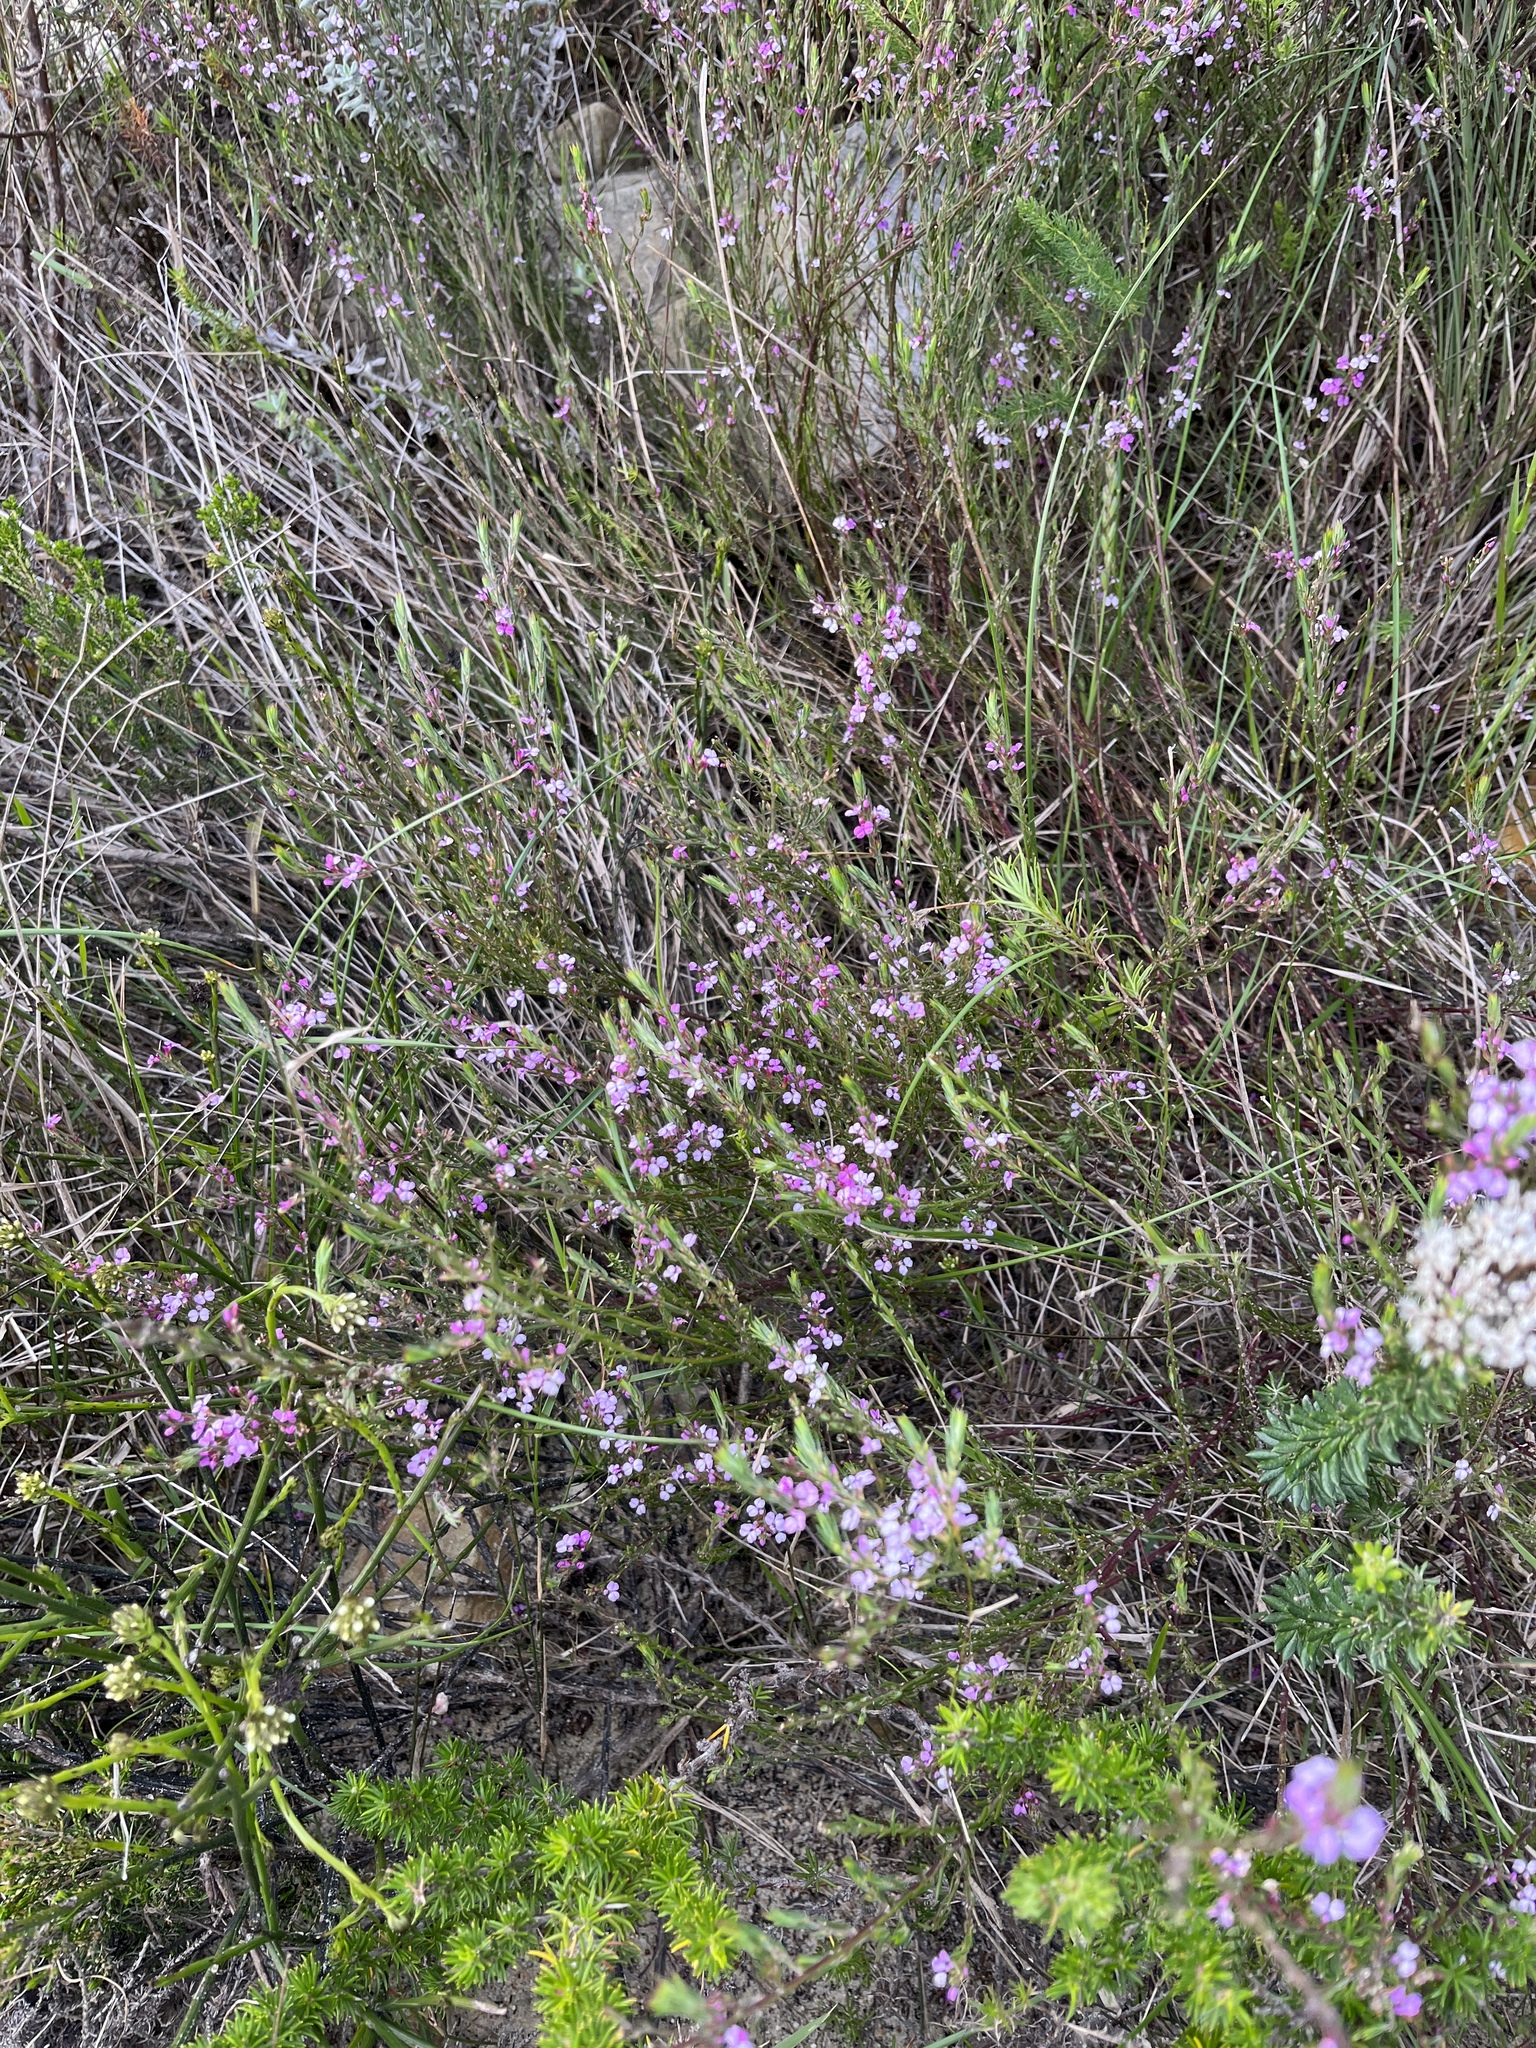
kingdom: Plantae
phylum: Tracheophyta
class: Magnoliopsida
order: Fabales
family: Polygalaceae
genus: Muraltia
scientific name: Muraltia filiformis
